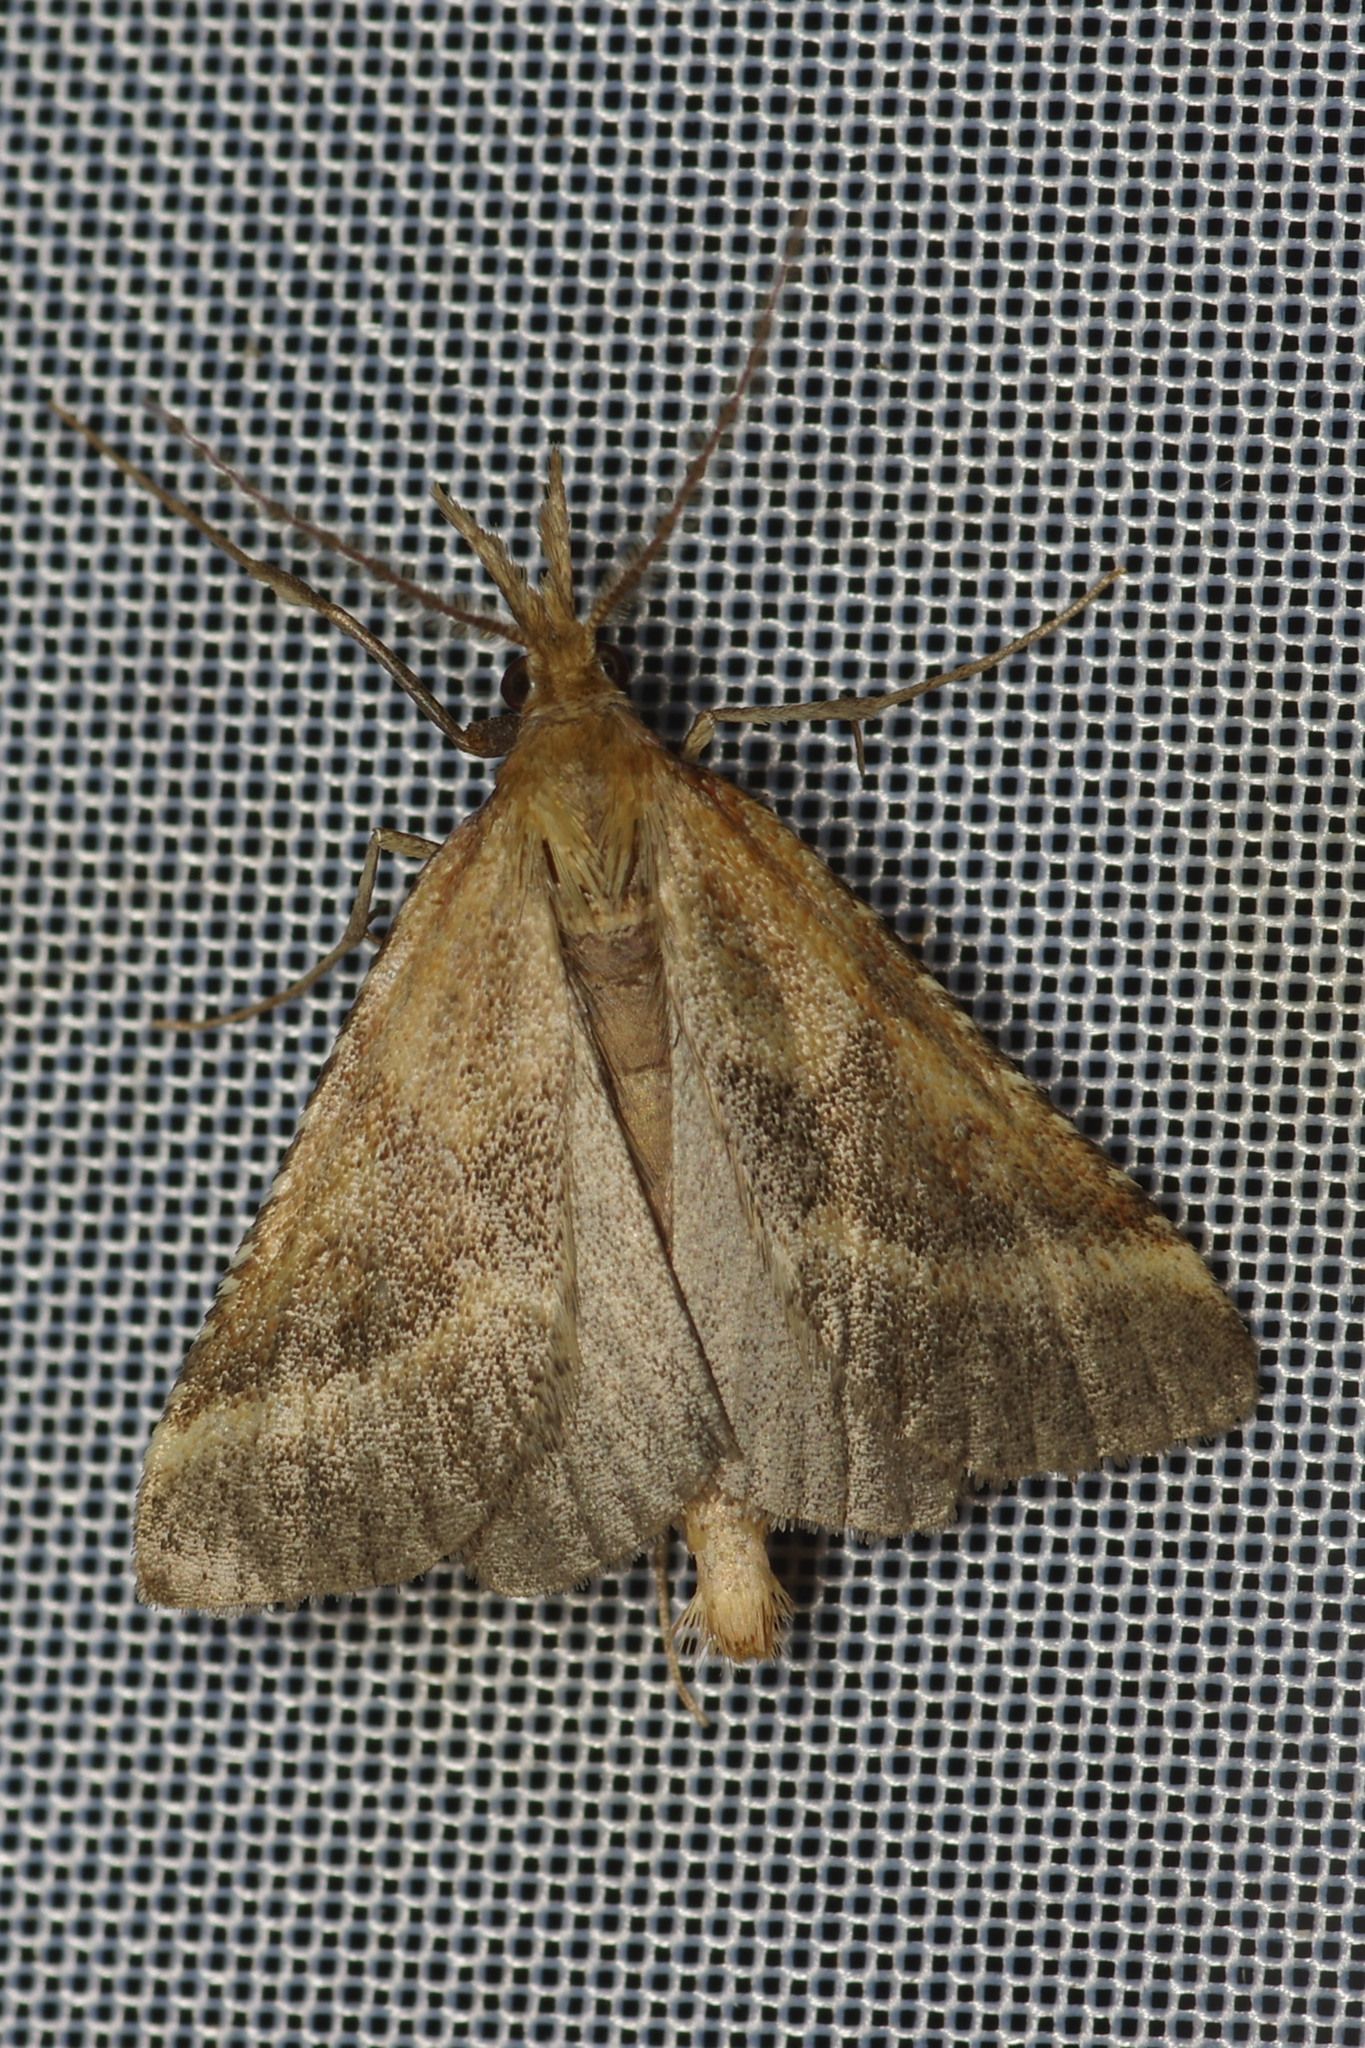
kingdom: Animalia
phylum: Arthropoda
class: Insecta
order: Lepidoptera
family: Pyralidae
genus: Synaphe
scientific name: Synaphe punctalis
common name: Long-legged tabby
